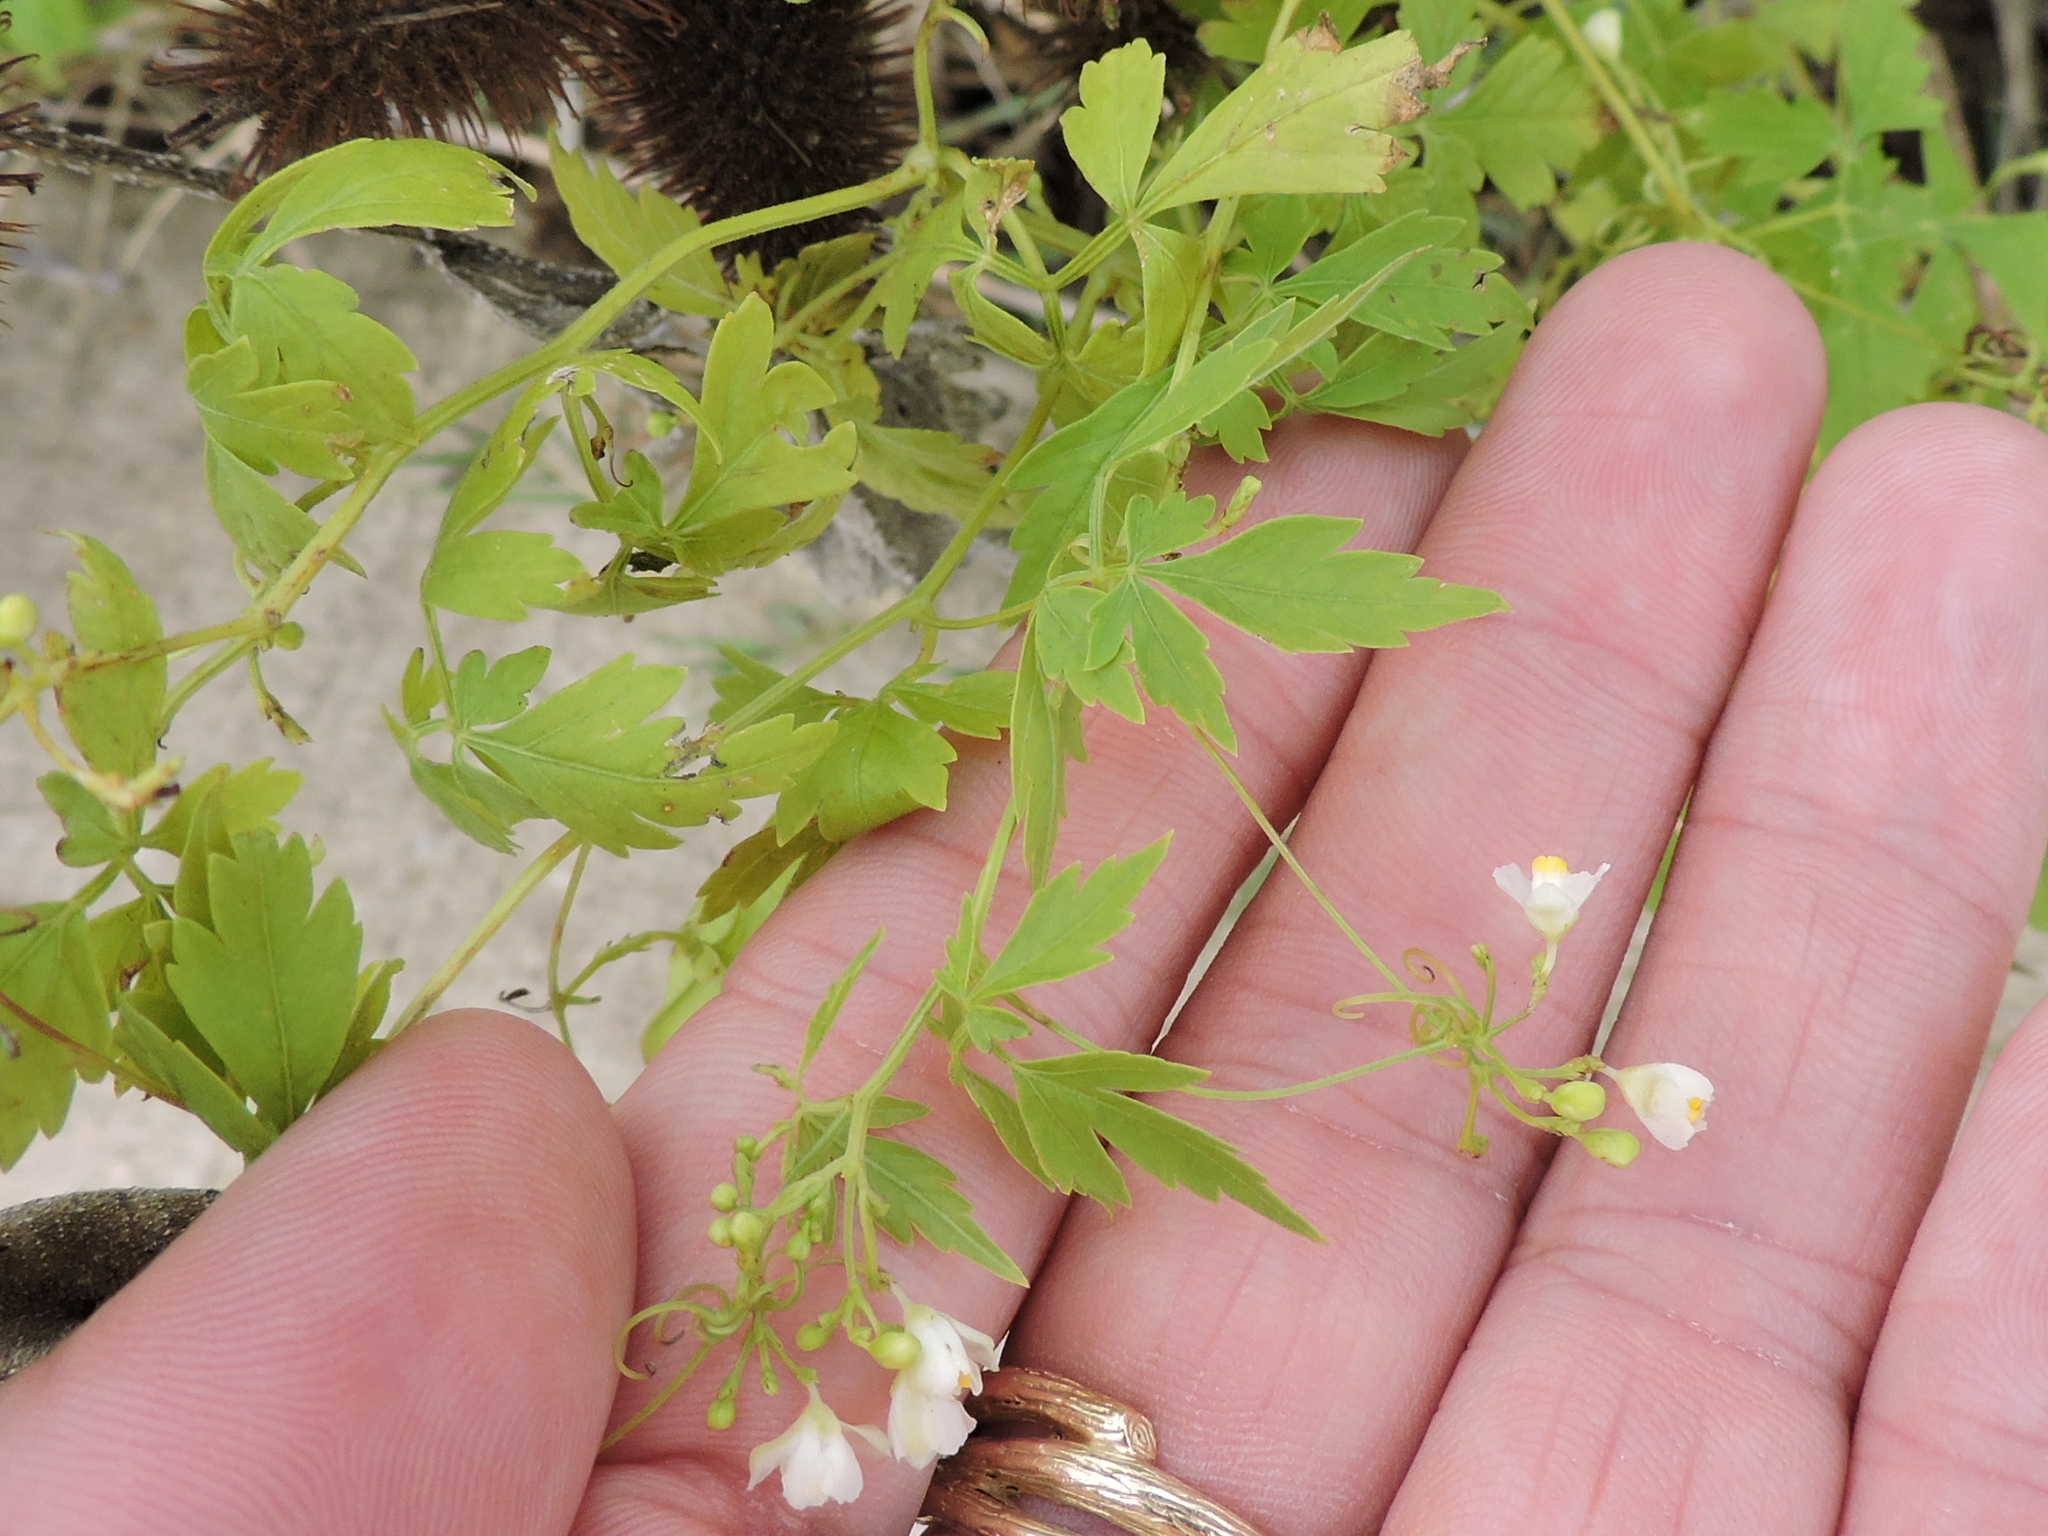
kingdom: Plantae
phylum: Tracheophyta
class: Magnoliopsida
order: Sapindales
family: Sapindaceae
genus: Cardiospermum
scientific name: Cardiospermum halicacabum
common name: Balloon vine
